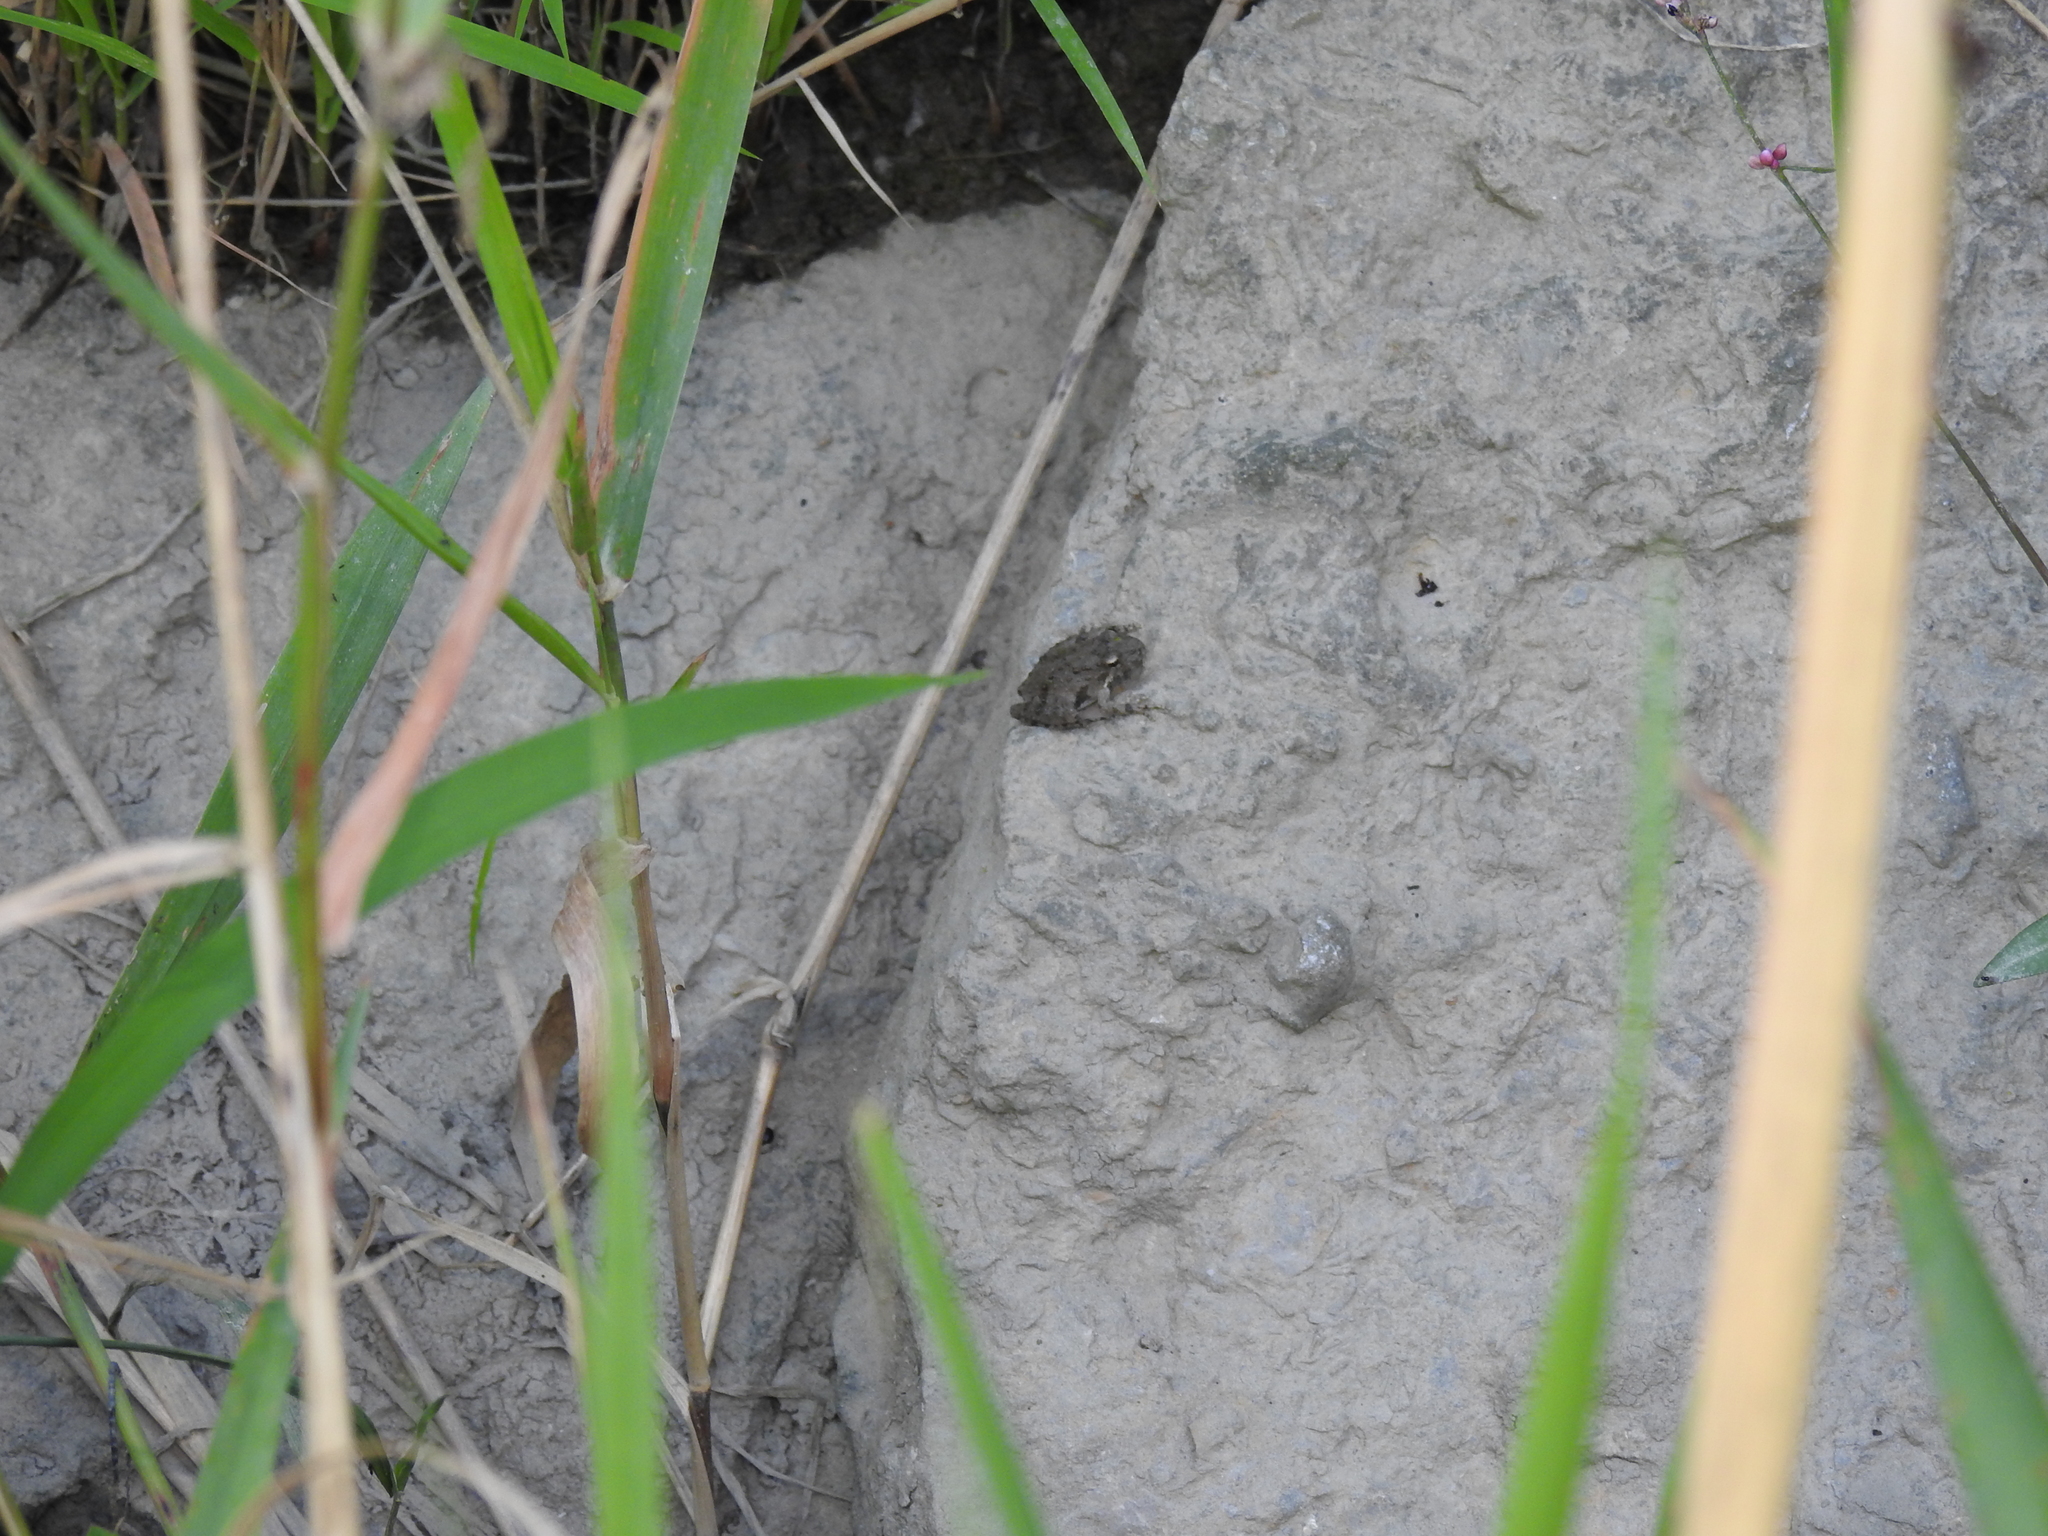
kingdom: Animalia
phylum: Chordata
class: Amphibia
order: Anura
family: Hylidae
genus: Acris
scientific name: Acris blanchardi
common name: Blanchard's cricket frog
